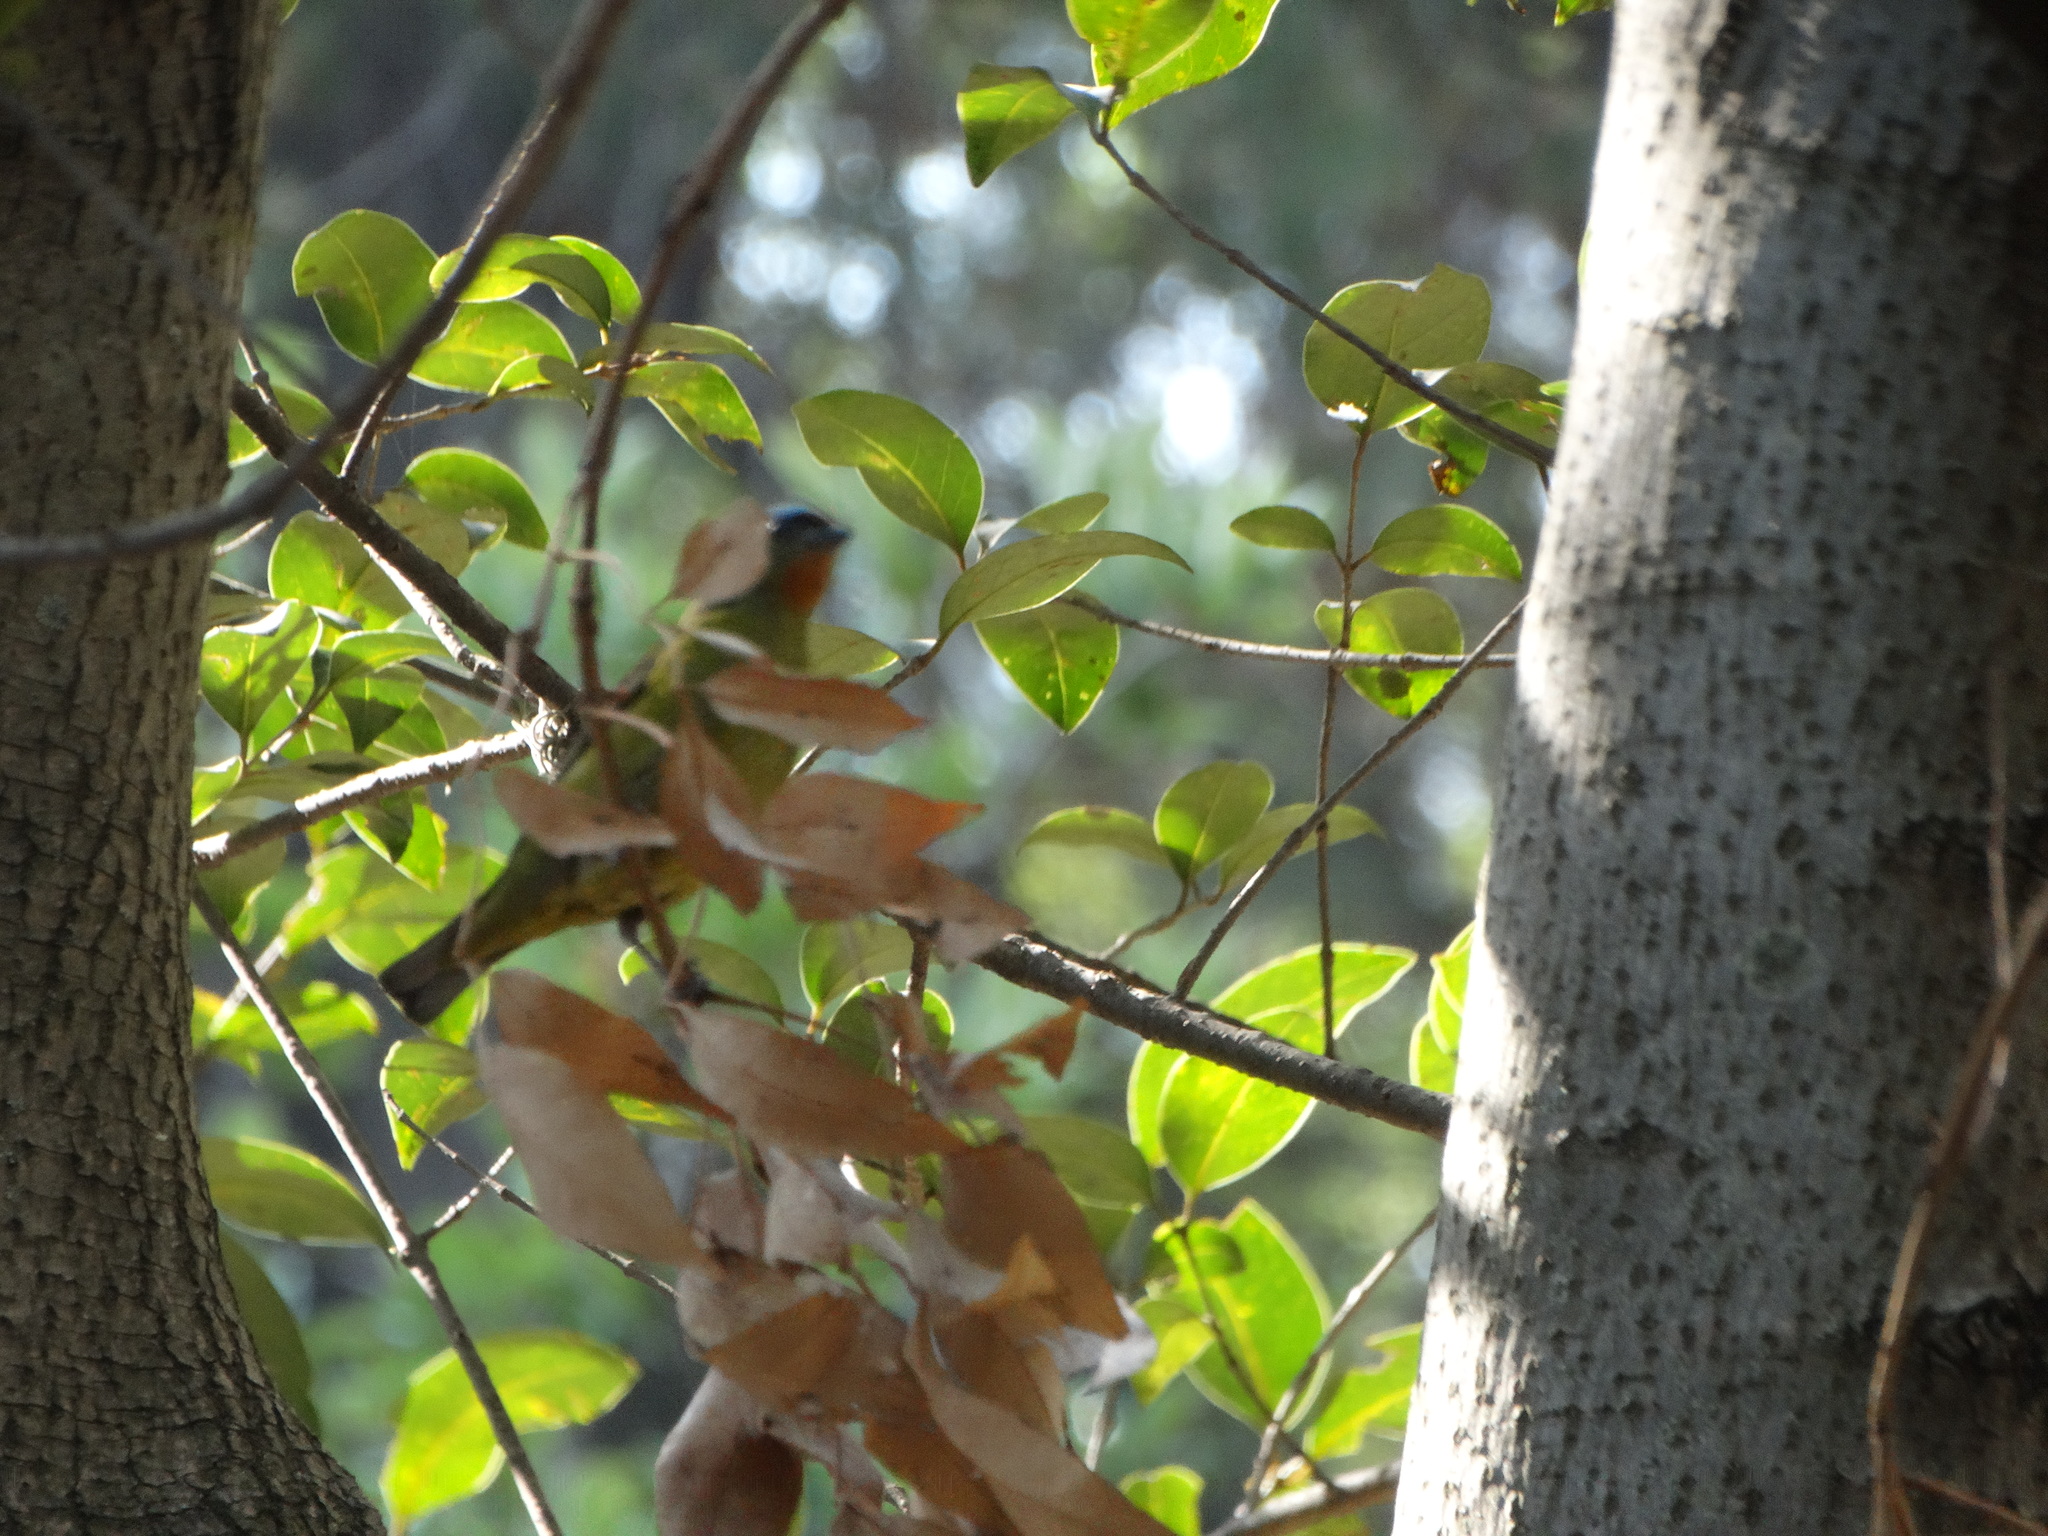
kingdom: Animalia
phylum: Chordata
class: Aves
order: Passeriformes
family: Fringillidae
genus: Euphonia
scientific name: Euphonia elegantissima
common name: Elegant euphonia
